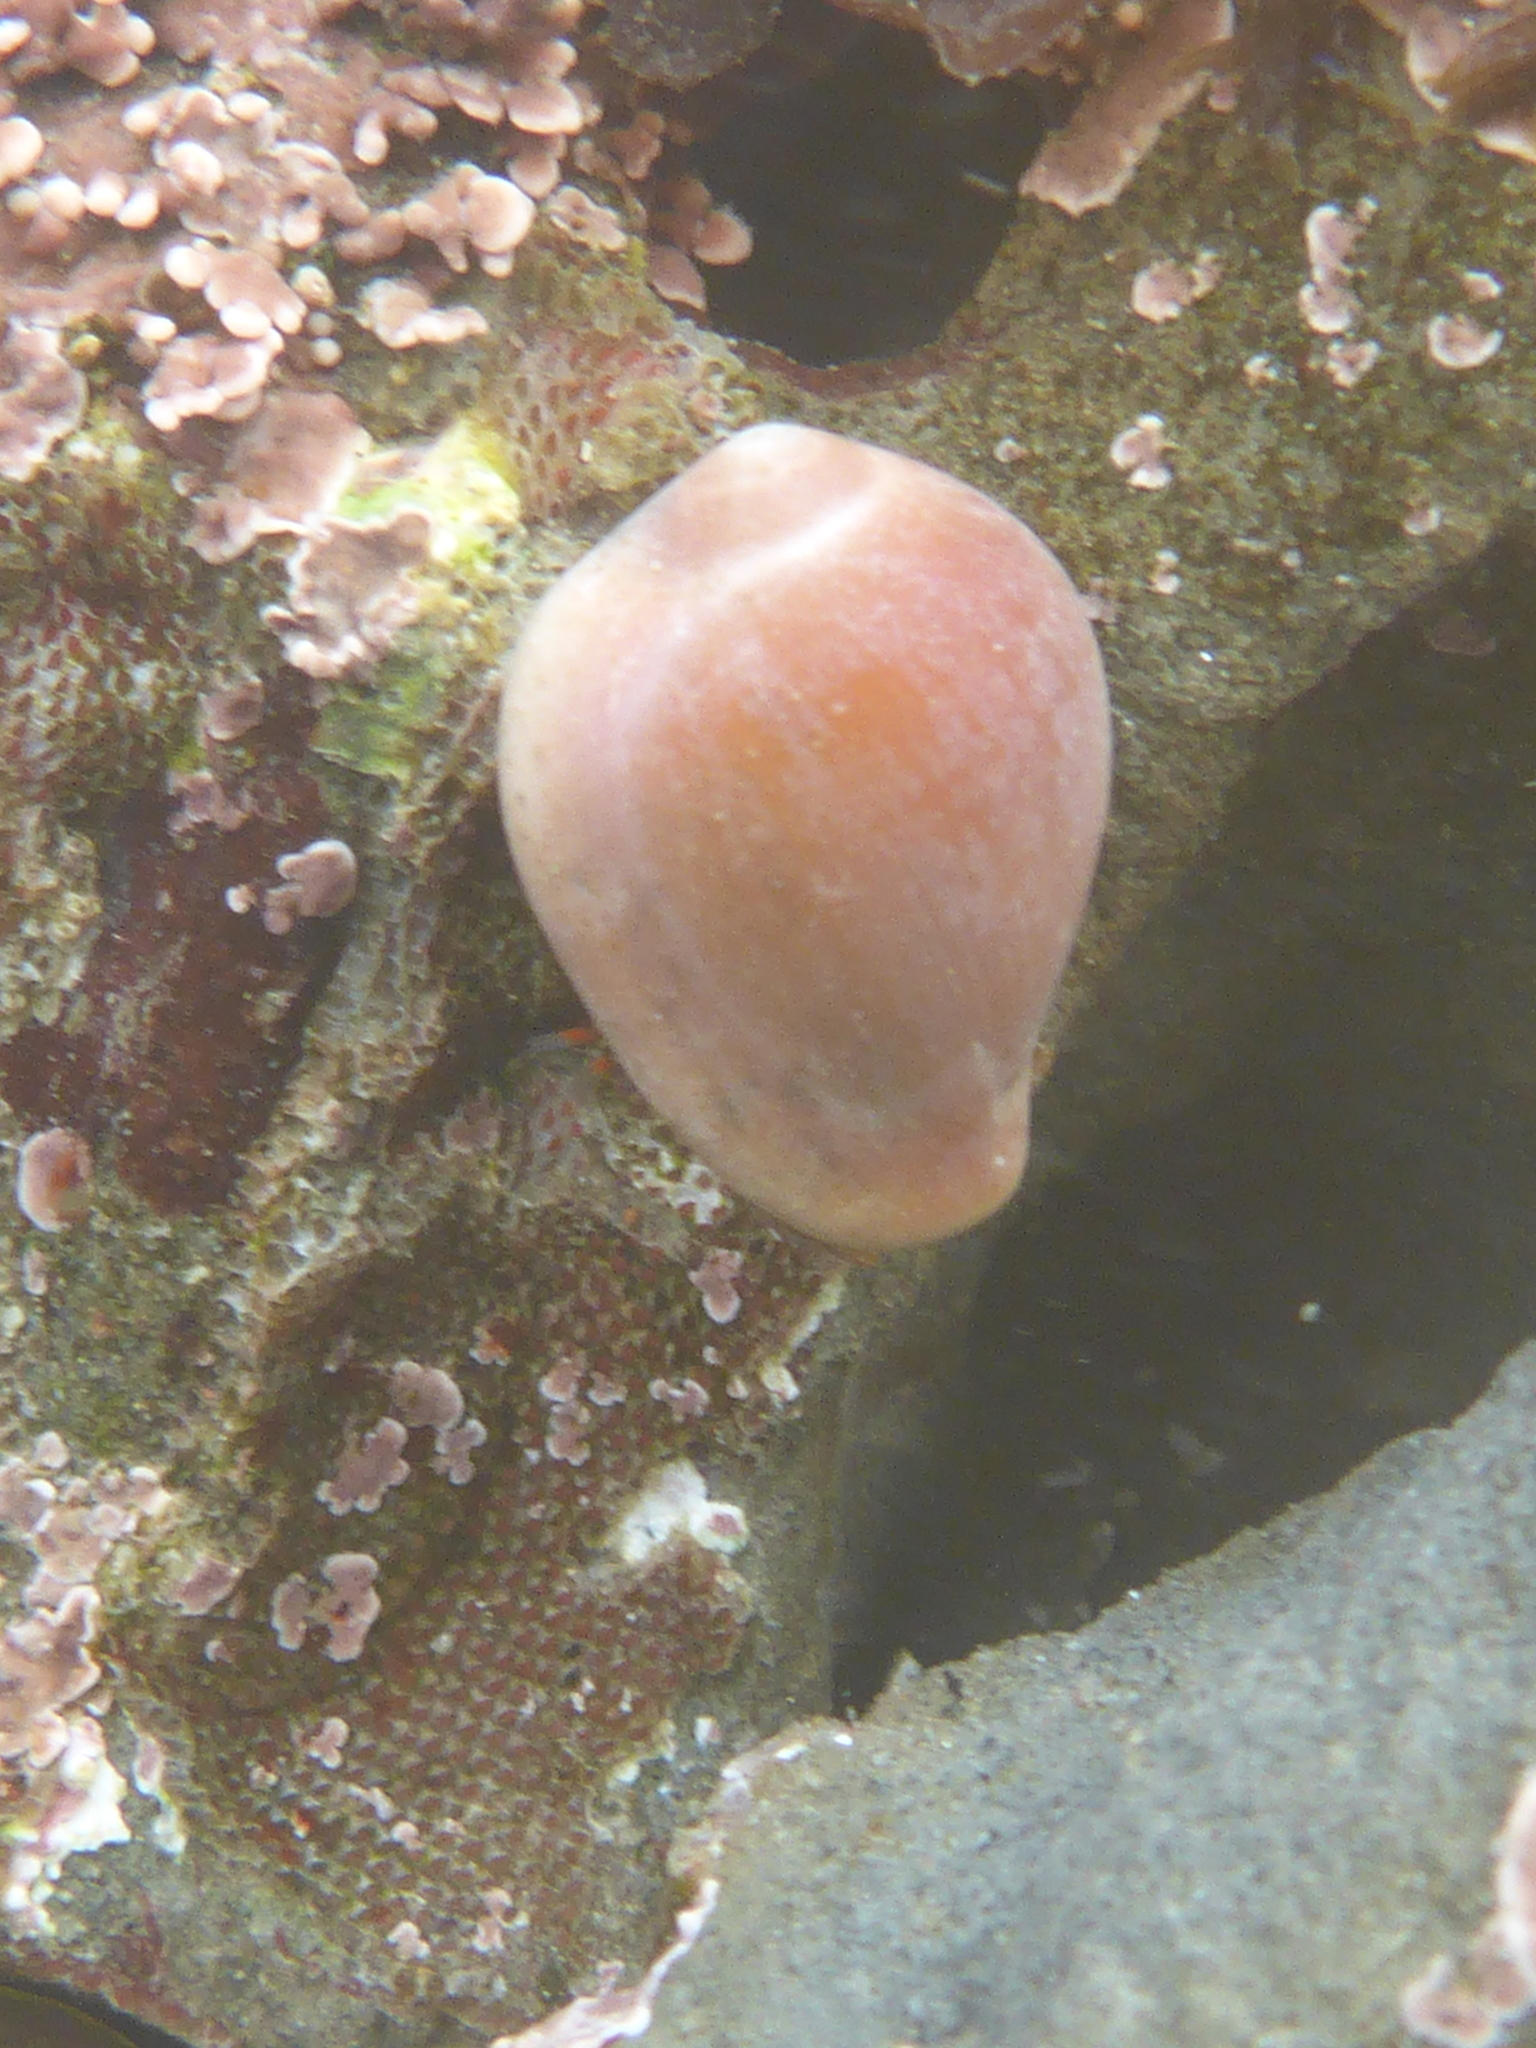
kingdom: Animalia
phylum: Mollusca
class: Gastropoda
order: Littorinimorpha
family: Eratoidae
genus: Hespererato
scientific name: Hespererato vitellina
